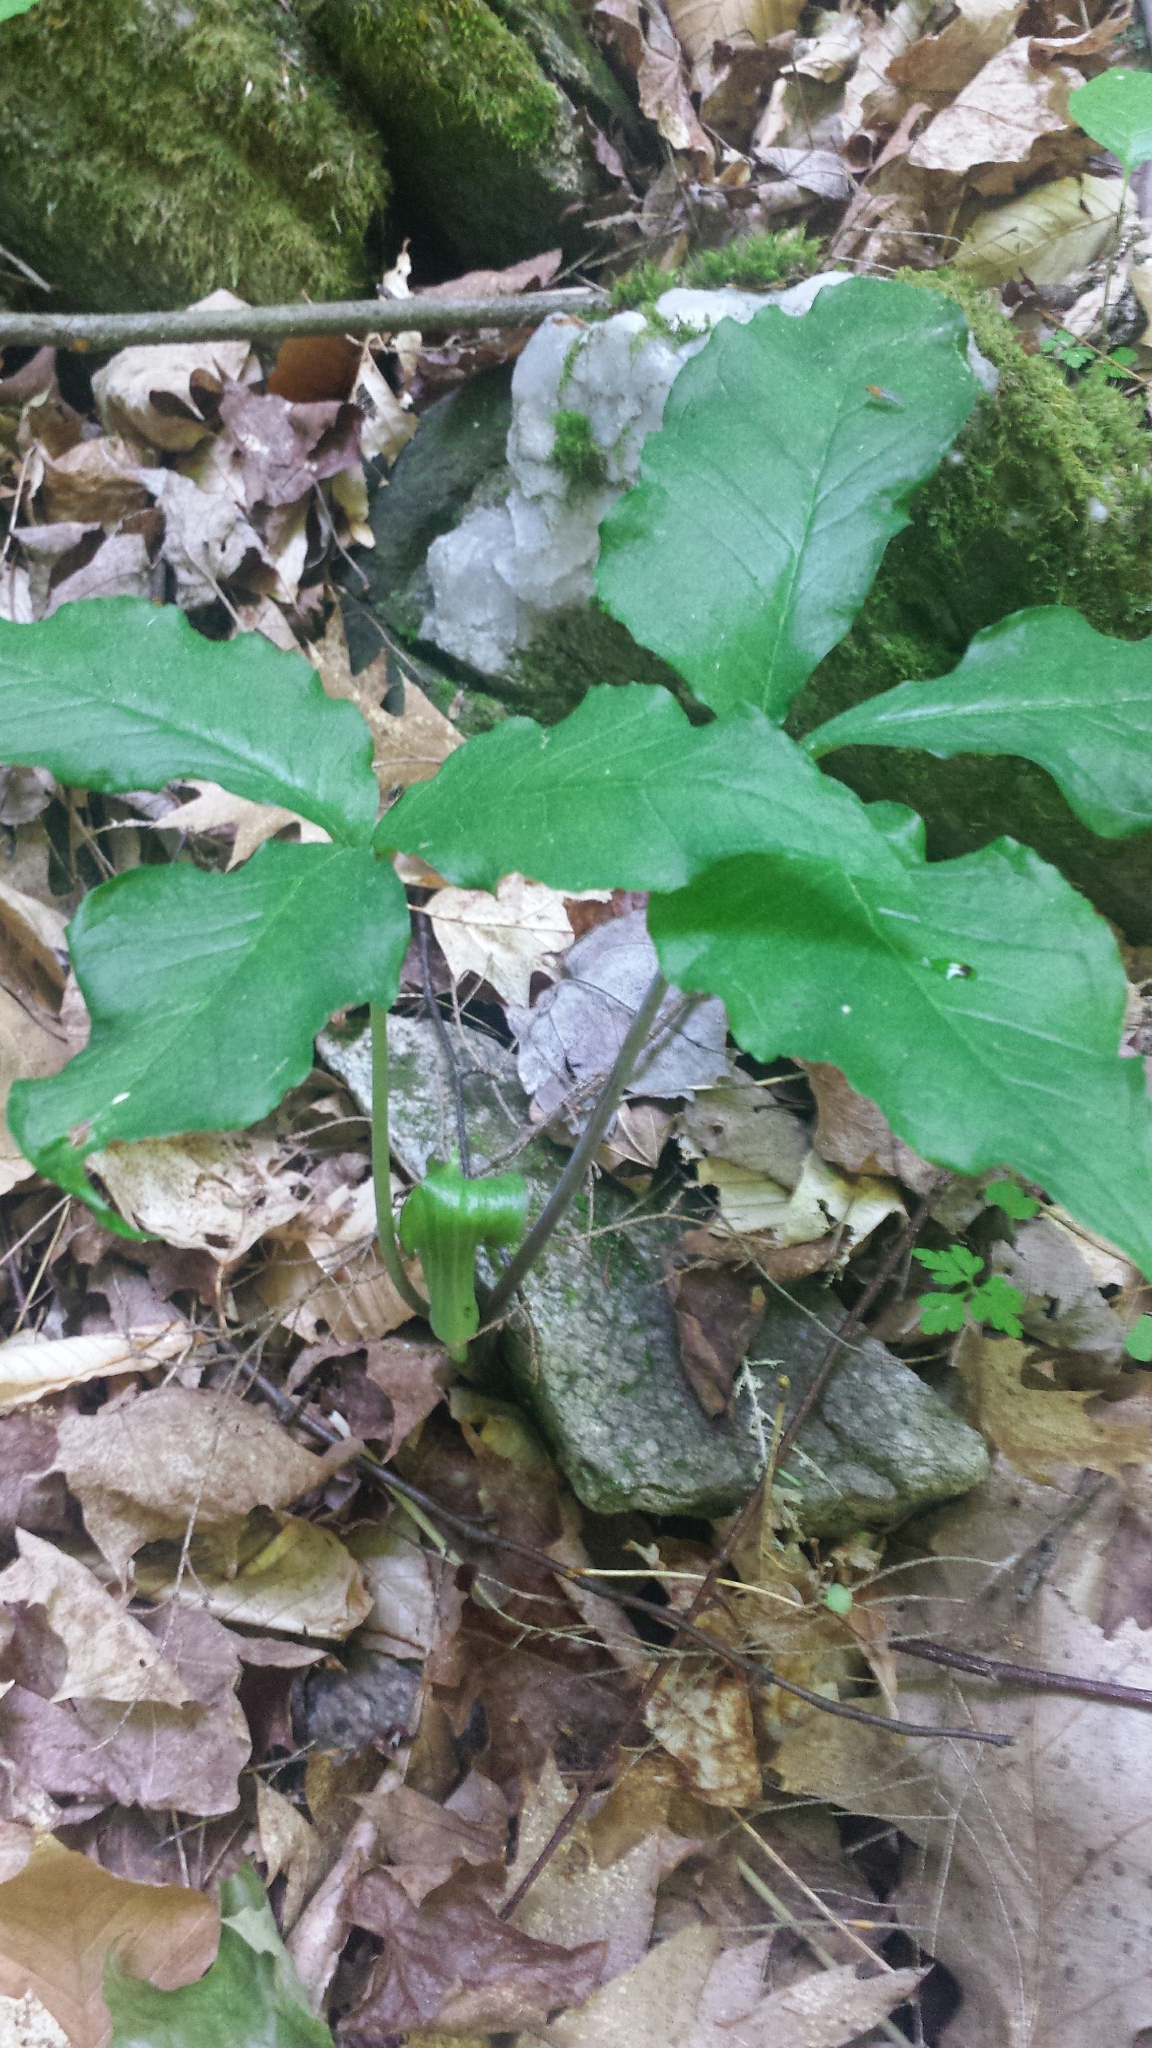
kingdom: Plantae
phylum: Tracheophyta
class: Liliopsida
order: Alismatales
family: Araceae
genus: Arisaema
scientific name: Arisaema triphyllum
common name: Jack-in-the-pulpit
